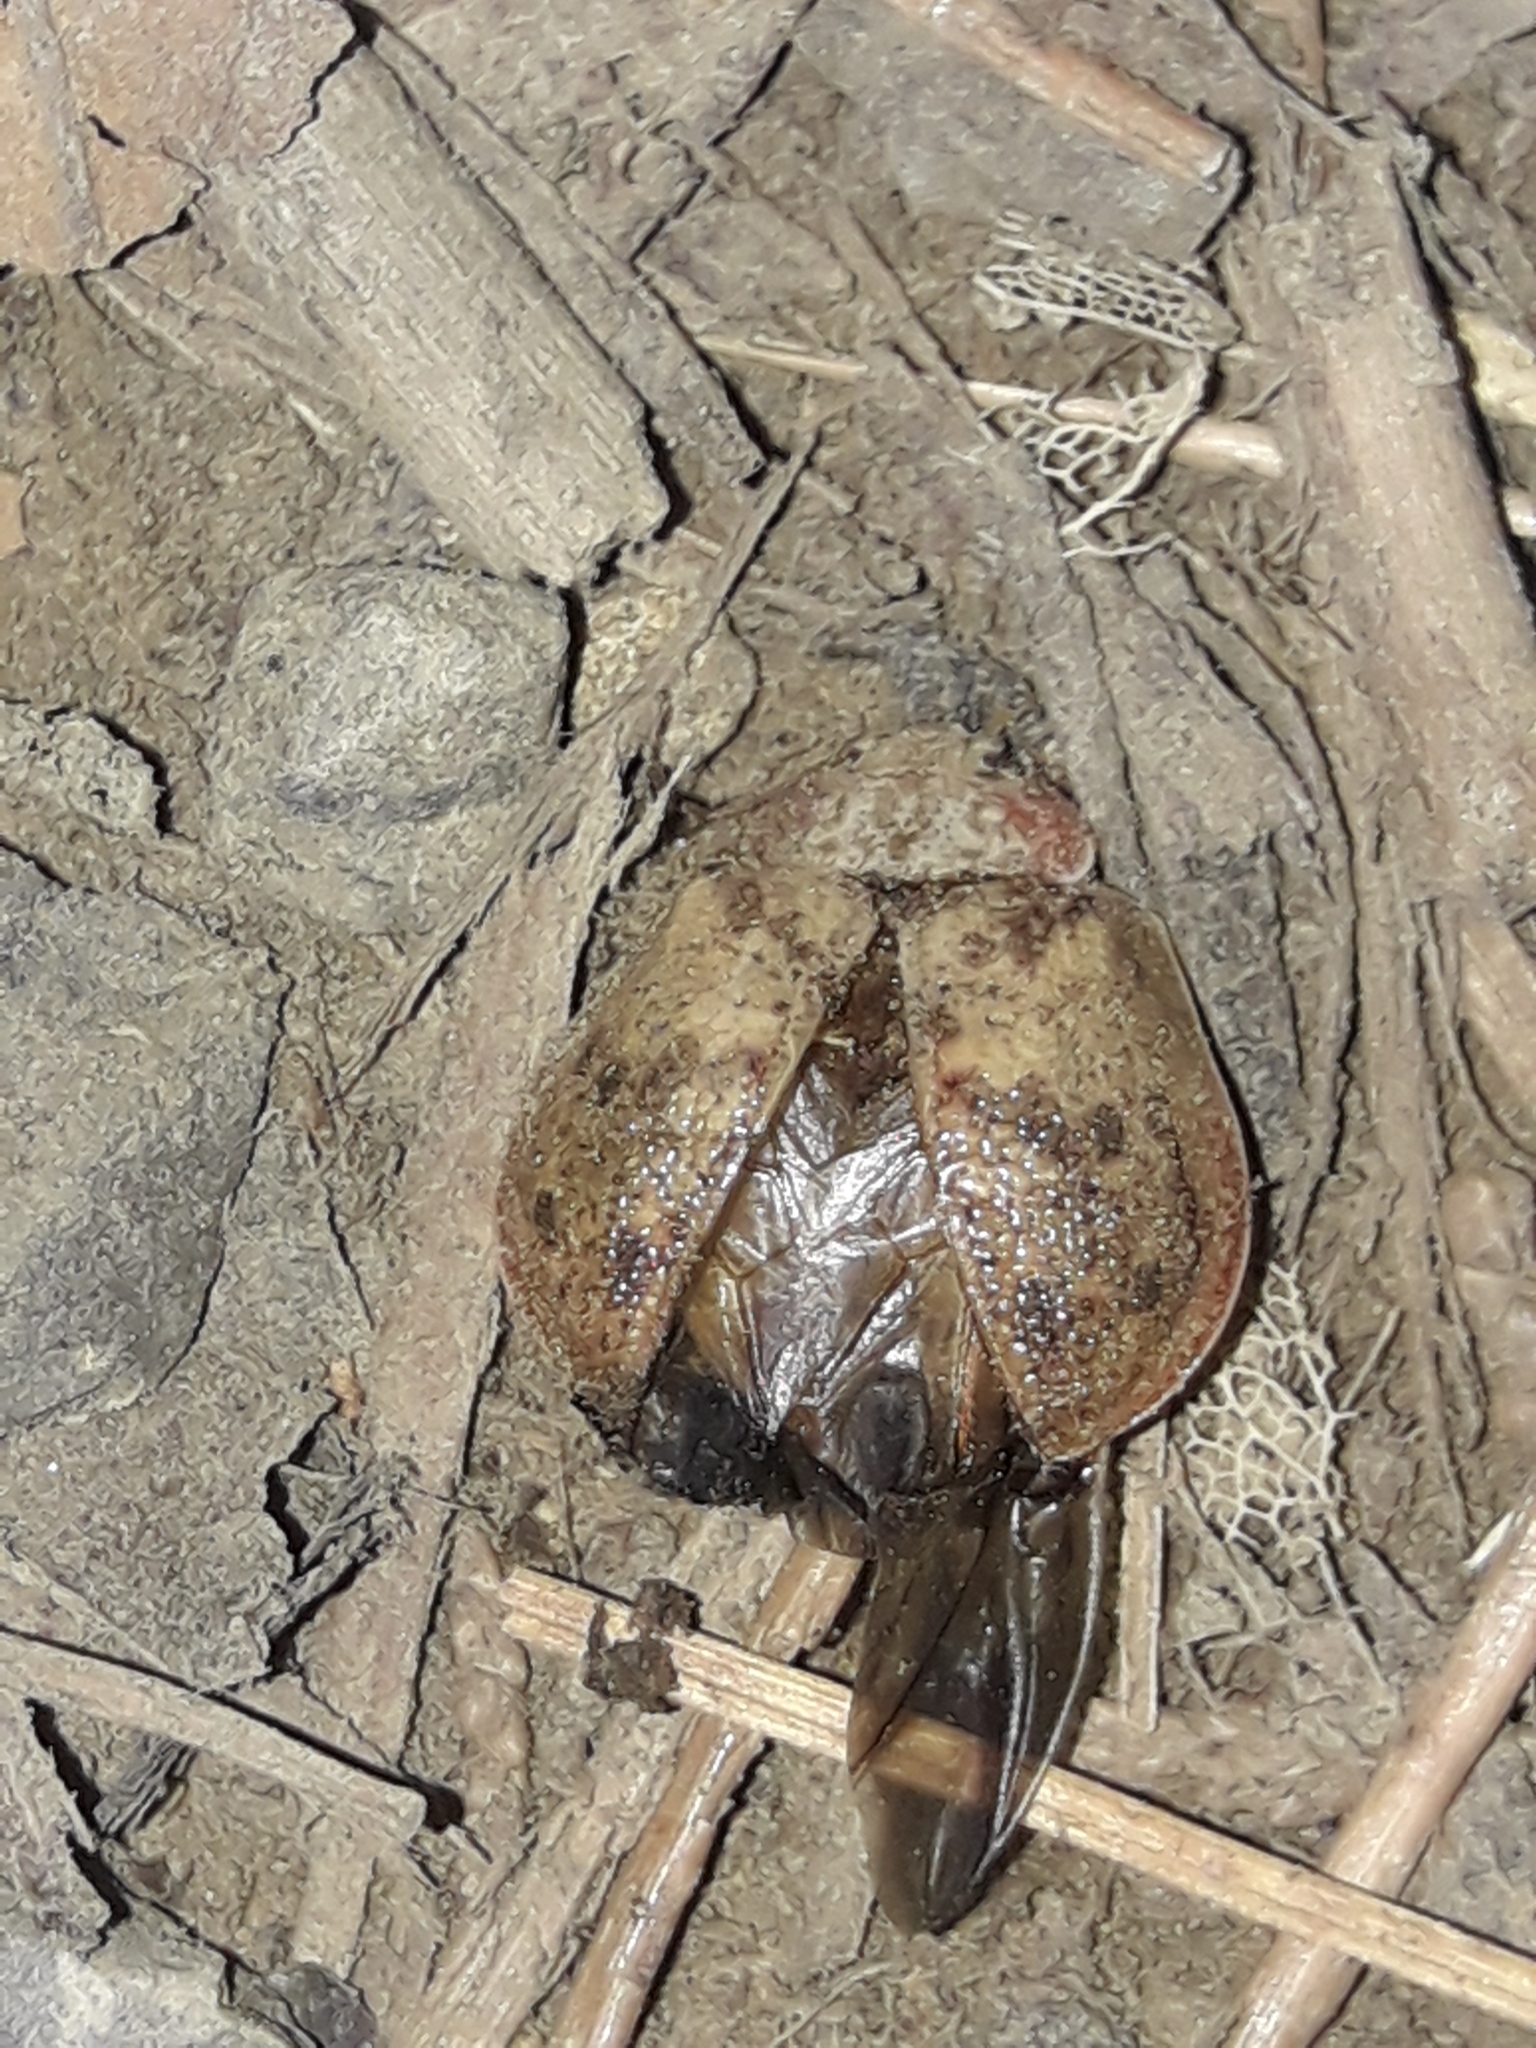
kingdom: Animalia
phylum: Arthropoda
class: Insecta
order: Coleoptera
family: Chrysomelidae
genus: Paropsis
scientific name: Paropsis charybdis
